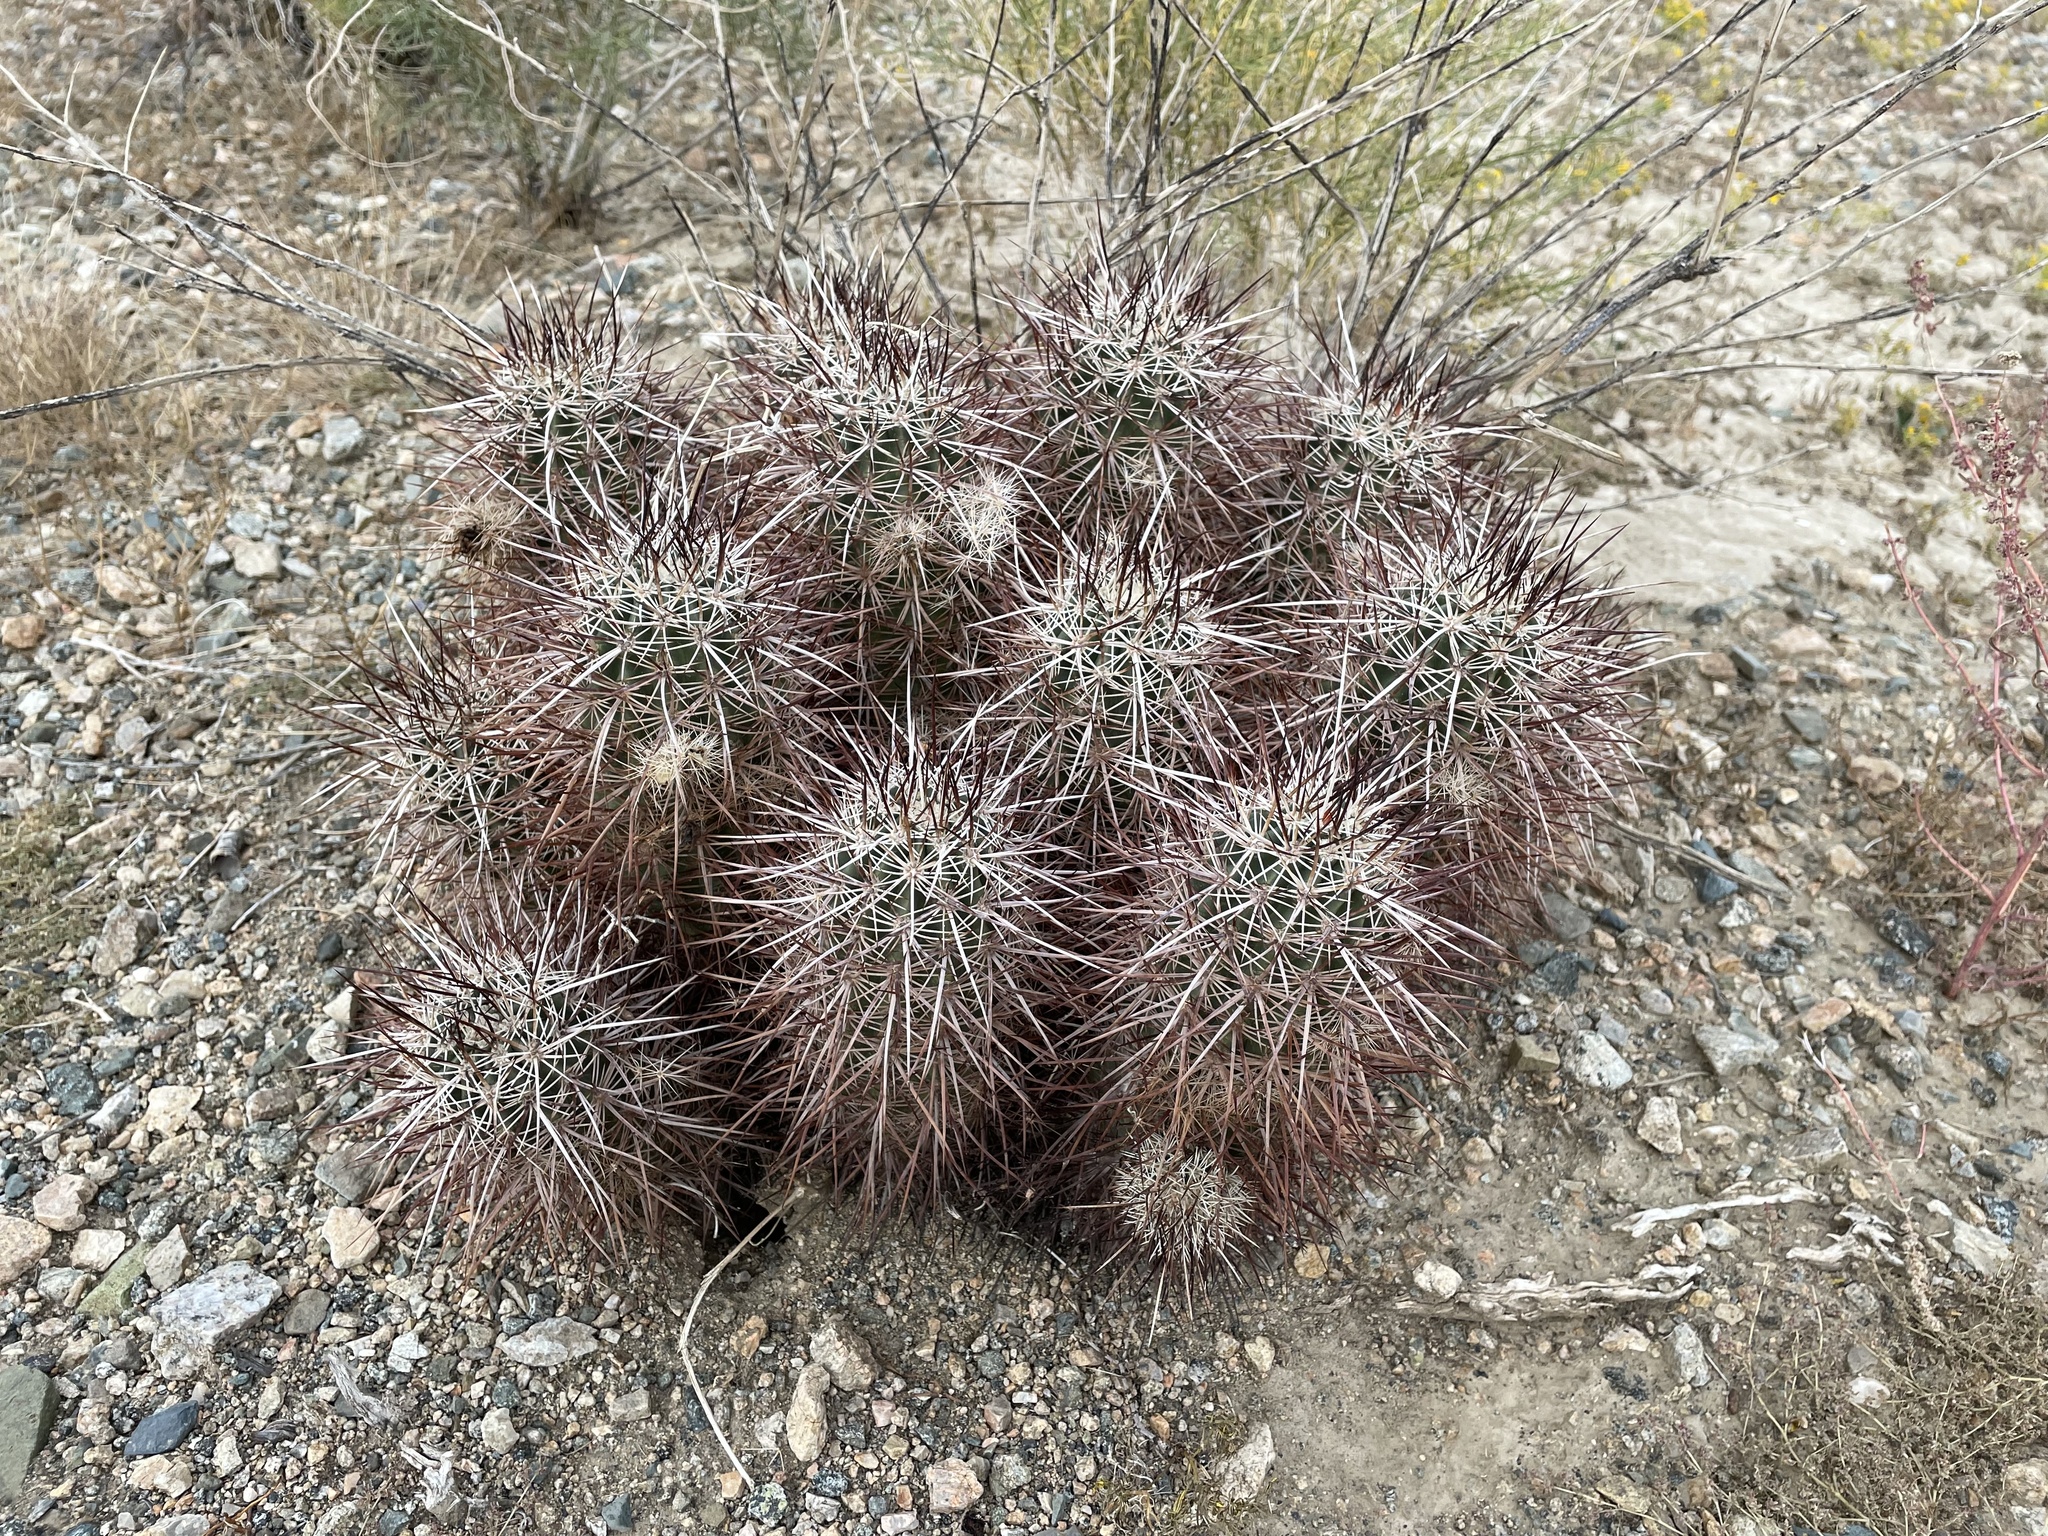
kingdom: Plantae
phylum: Tracheophyta
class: Magnoliopsida
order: Caryophyllales
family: Cactaceae
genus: Echinocereus
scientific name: Echinocereus engelmannii
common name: Engelmann's hedgehog cactus
